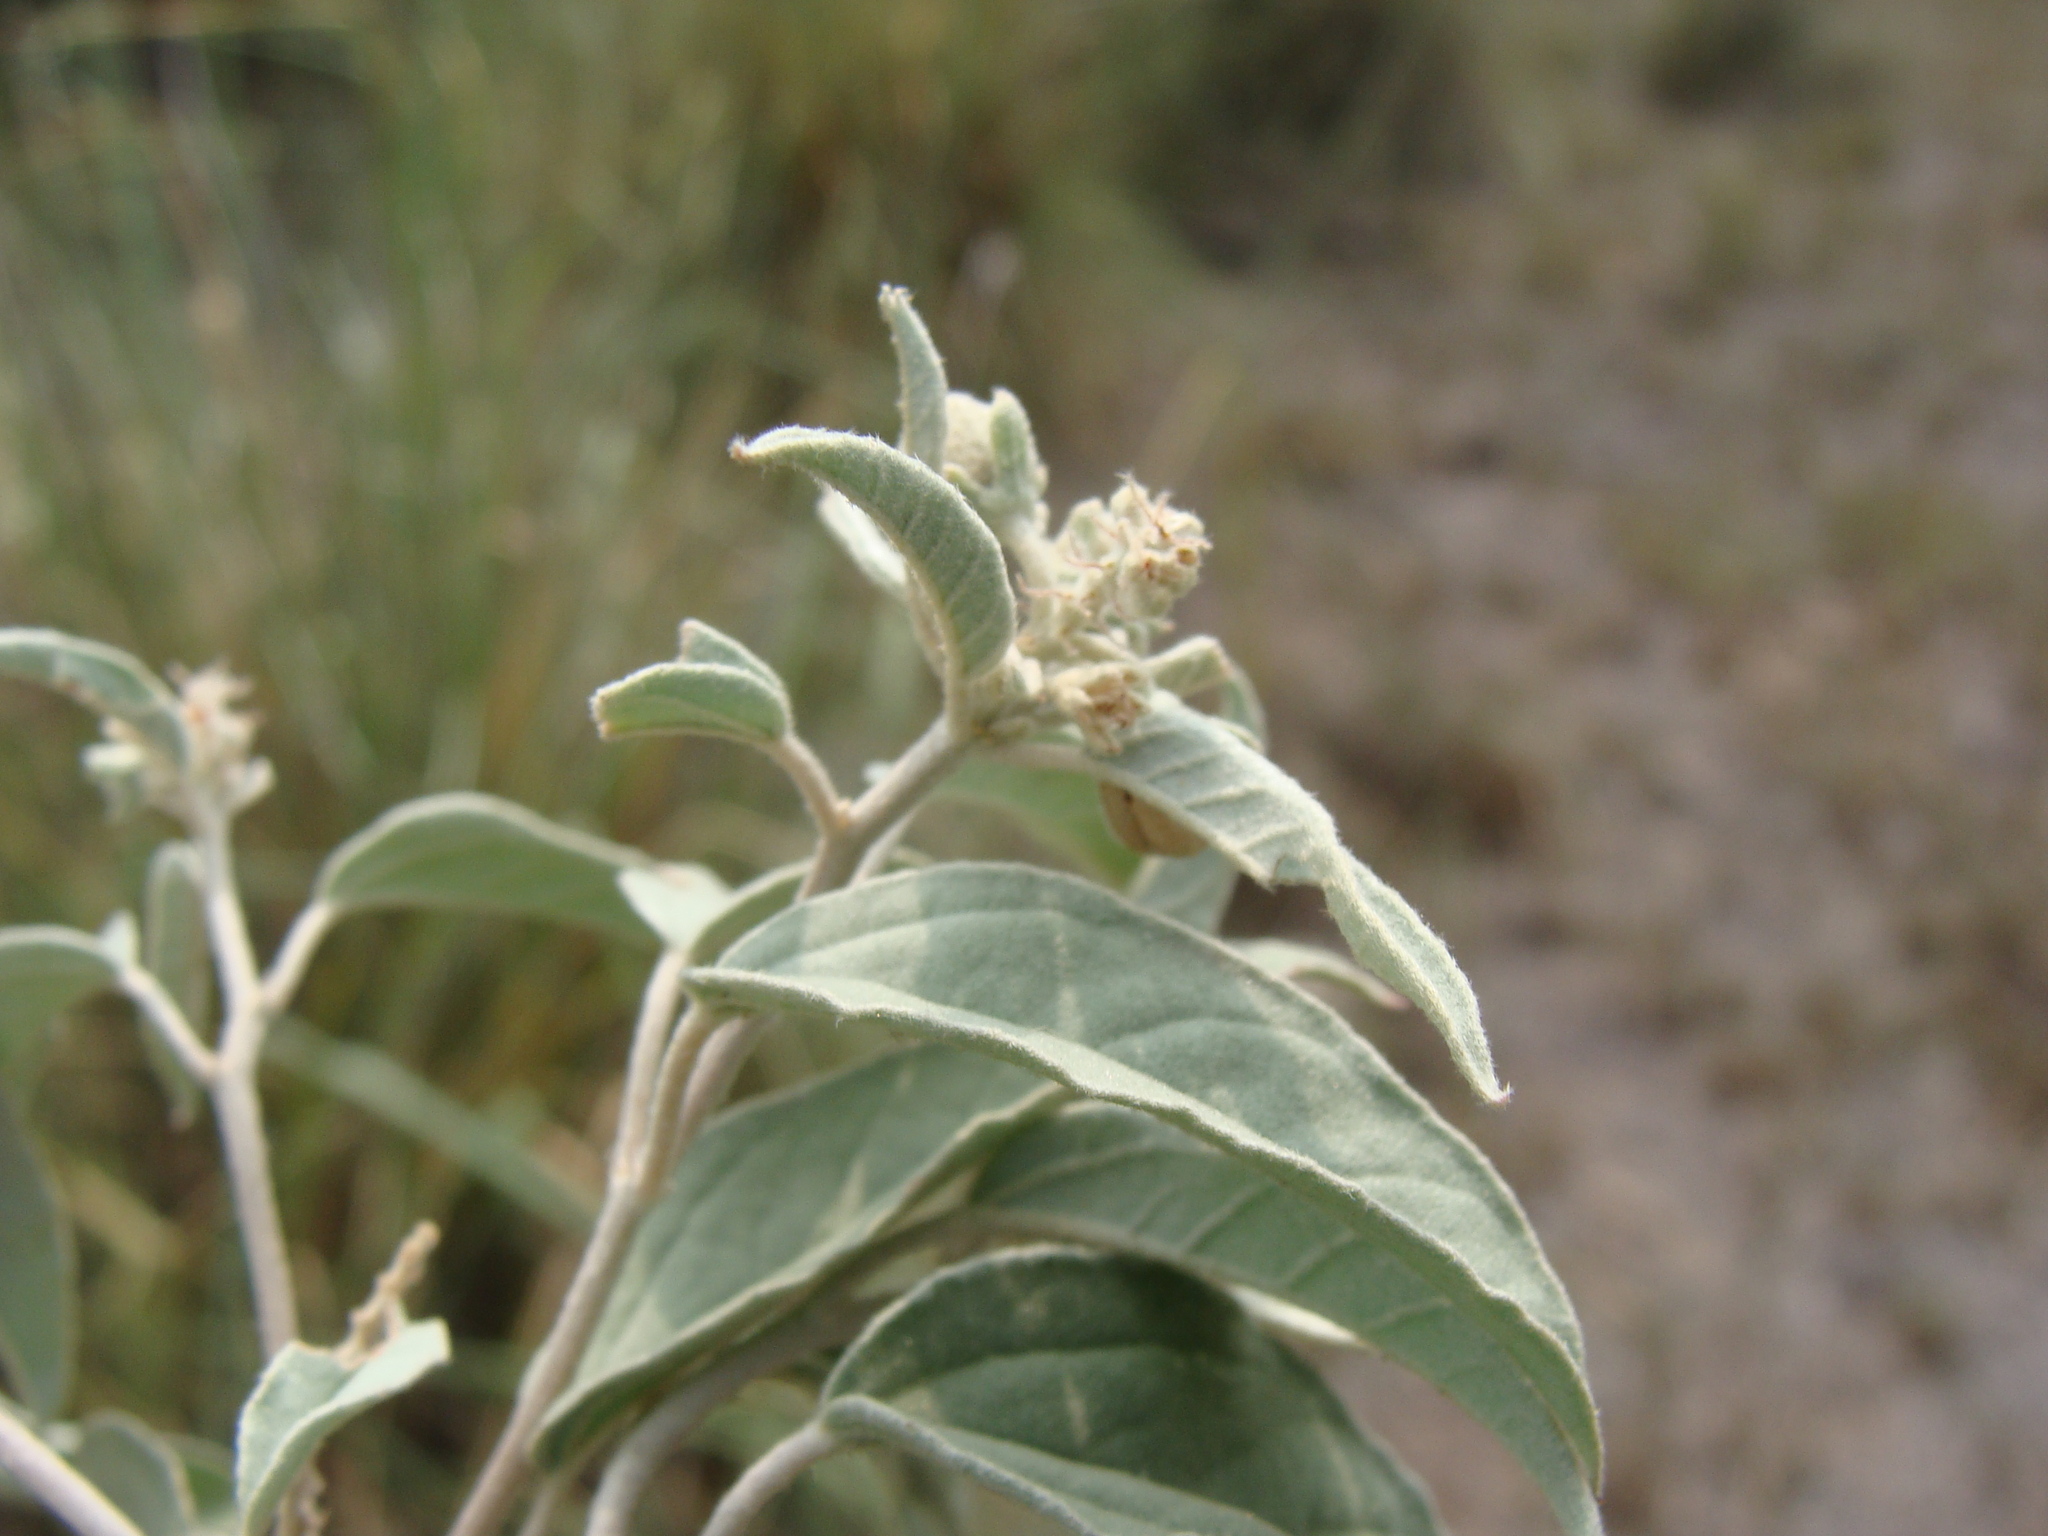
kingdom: Plantae
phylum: Tracheophyta
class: Magnoliopsida
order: Malpighiales
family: Euphorbiaceae
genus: Croton
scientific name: Croton pottsii
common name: Leatherweed
